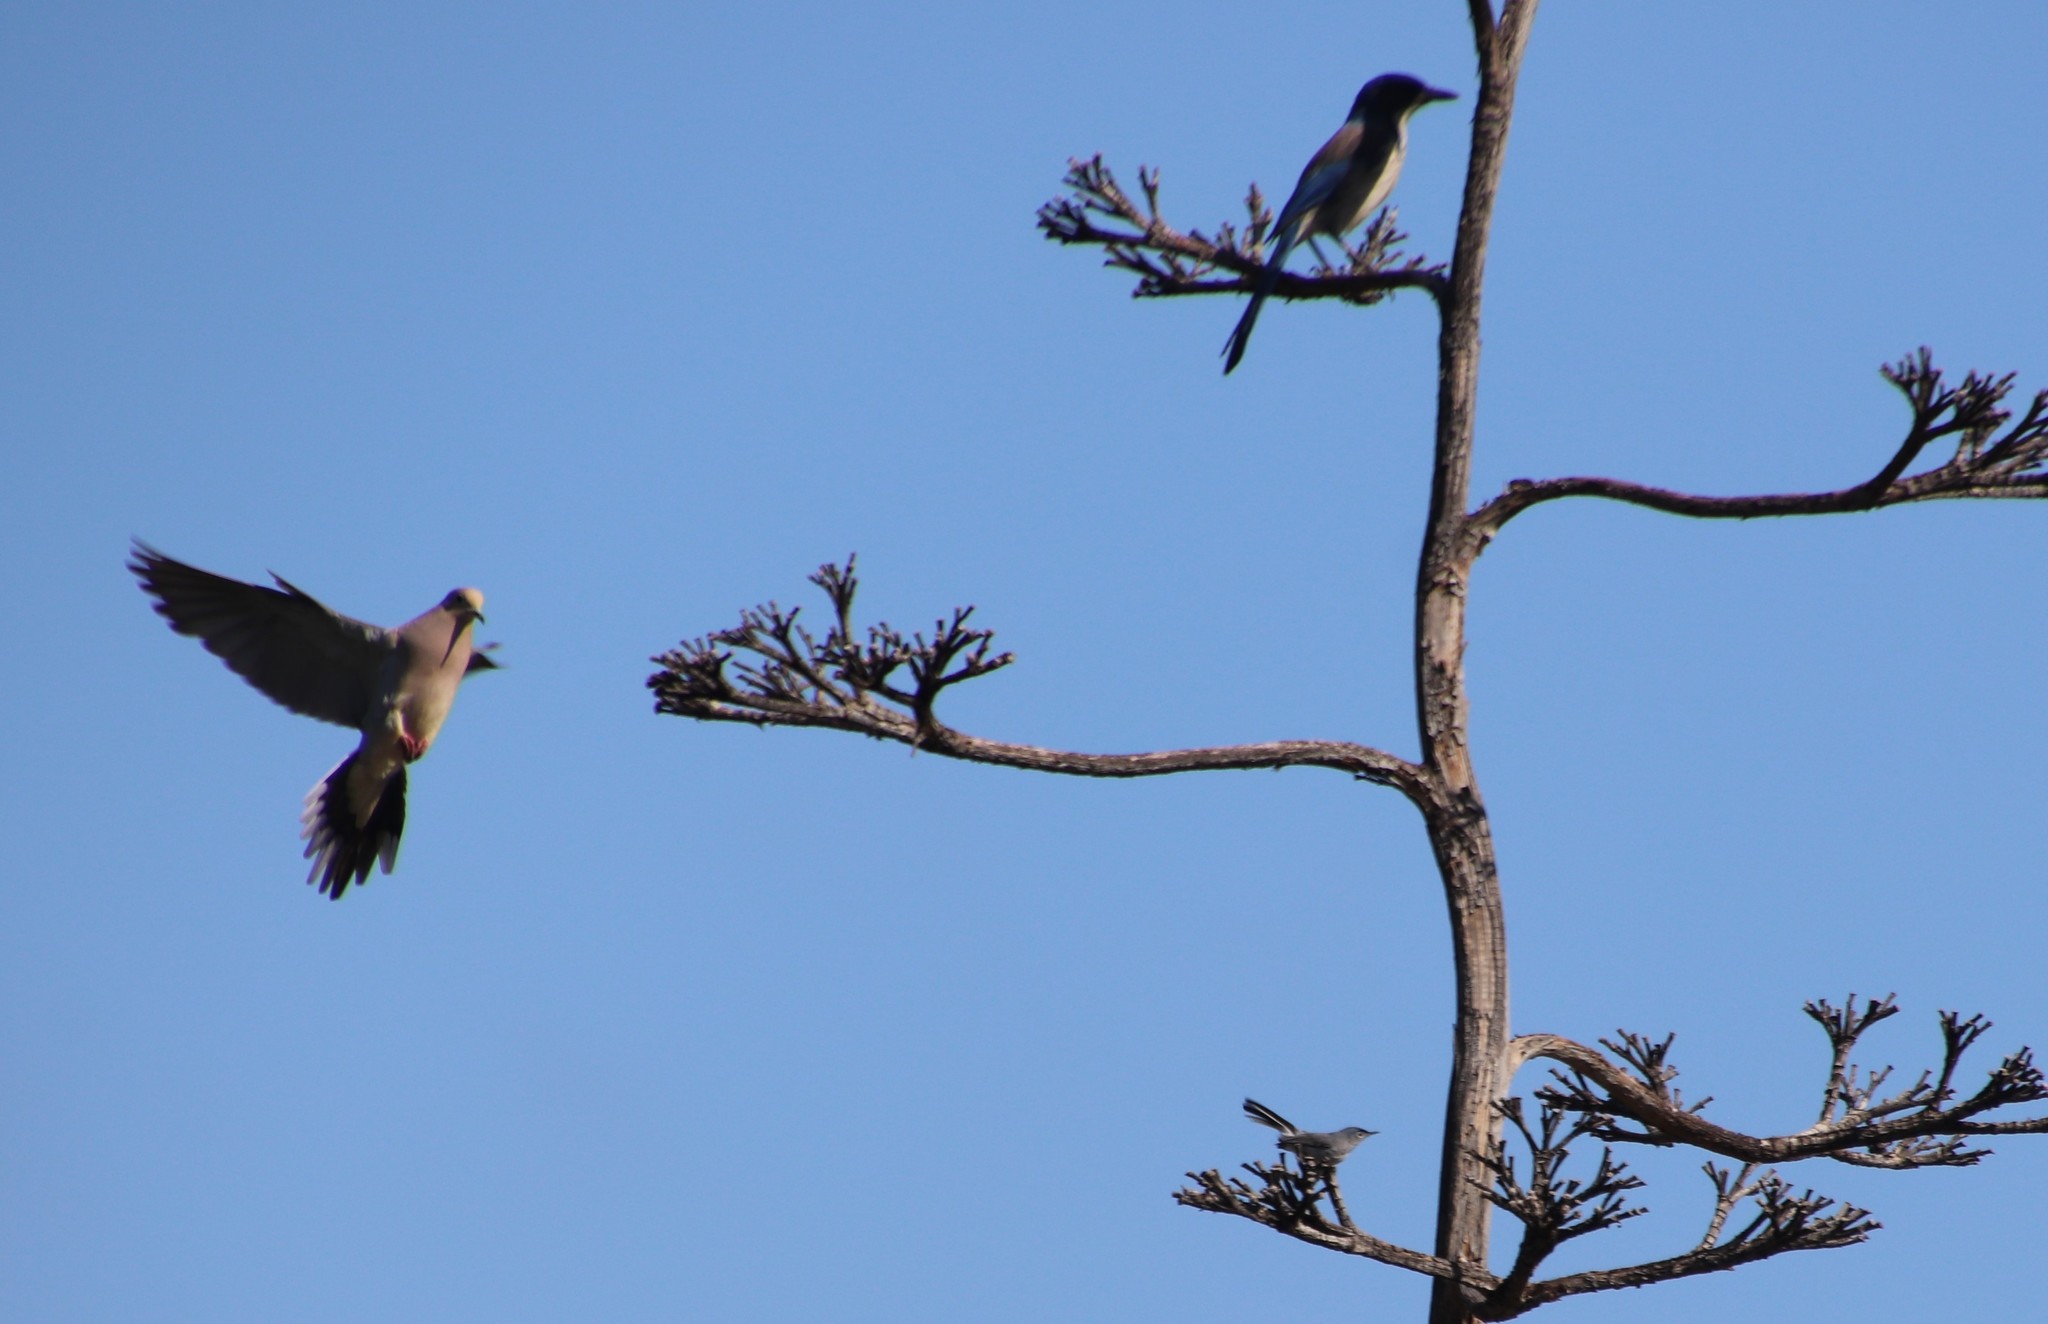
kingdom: Animalia
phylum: Chordata
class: Aves
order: Columbiformes
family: Columbidae
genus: Zenaida
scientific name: Zenaida macroura
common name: Mourning dove
